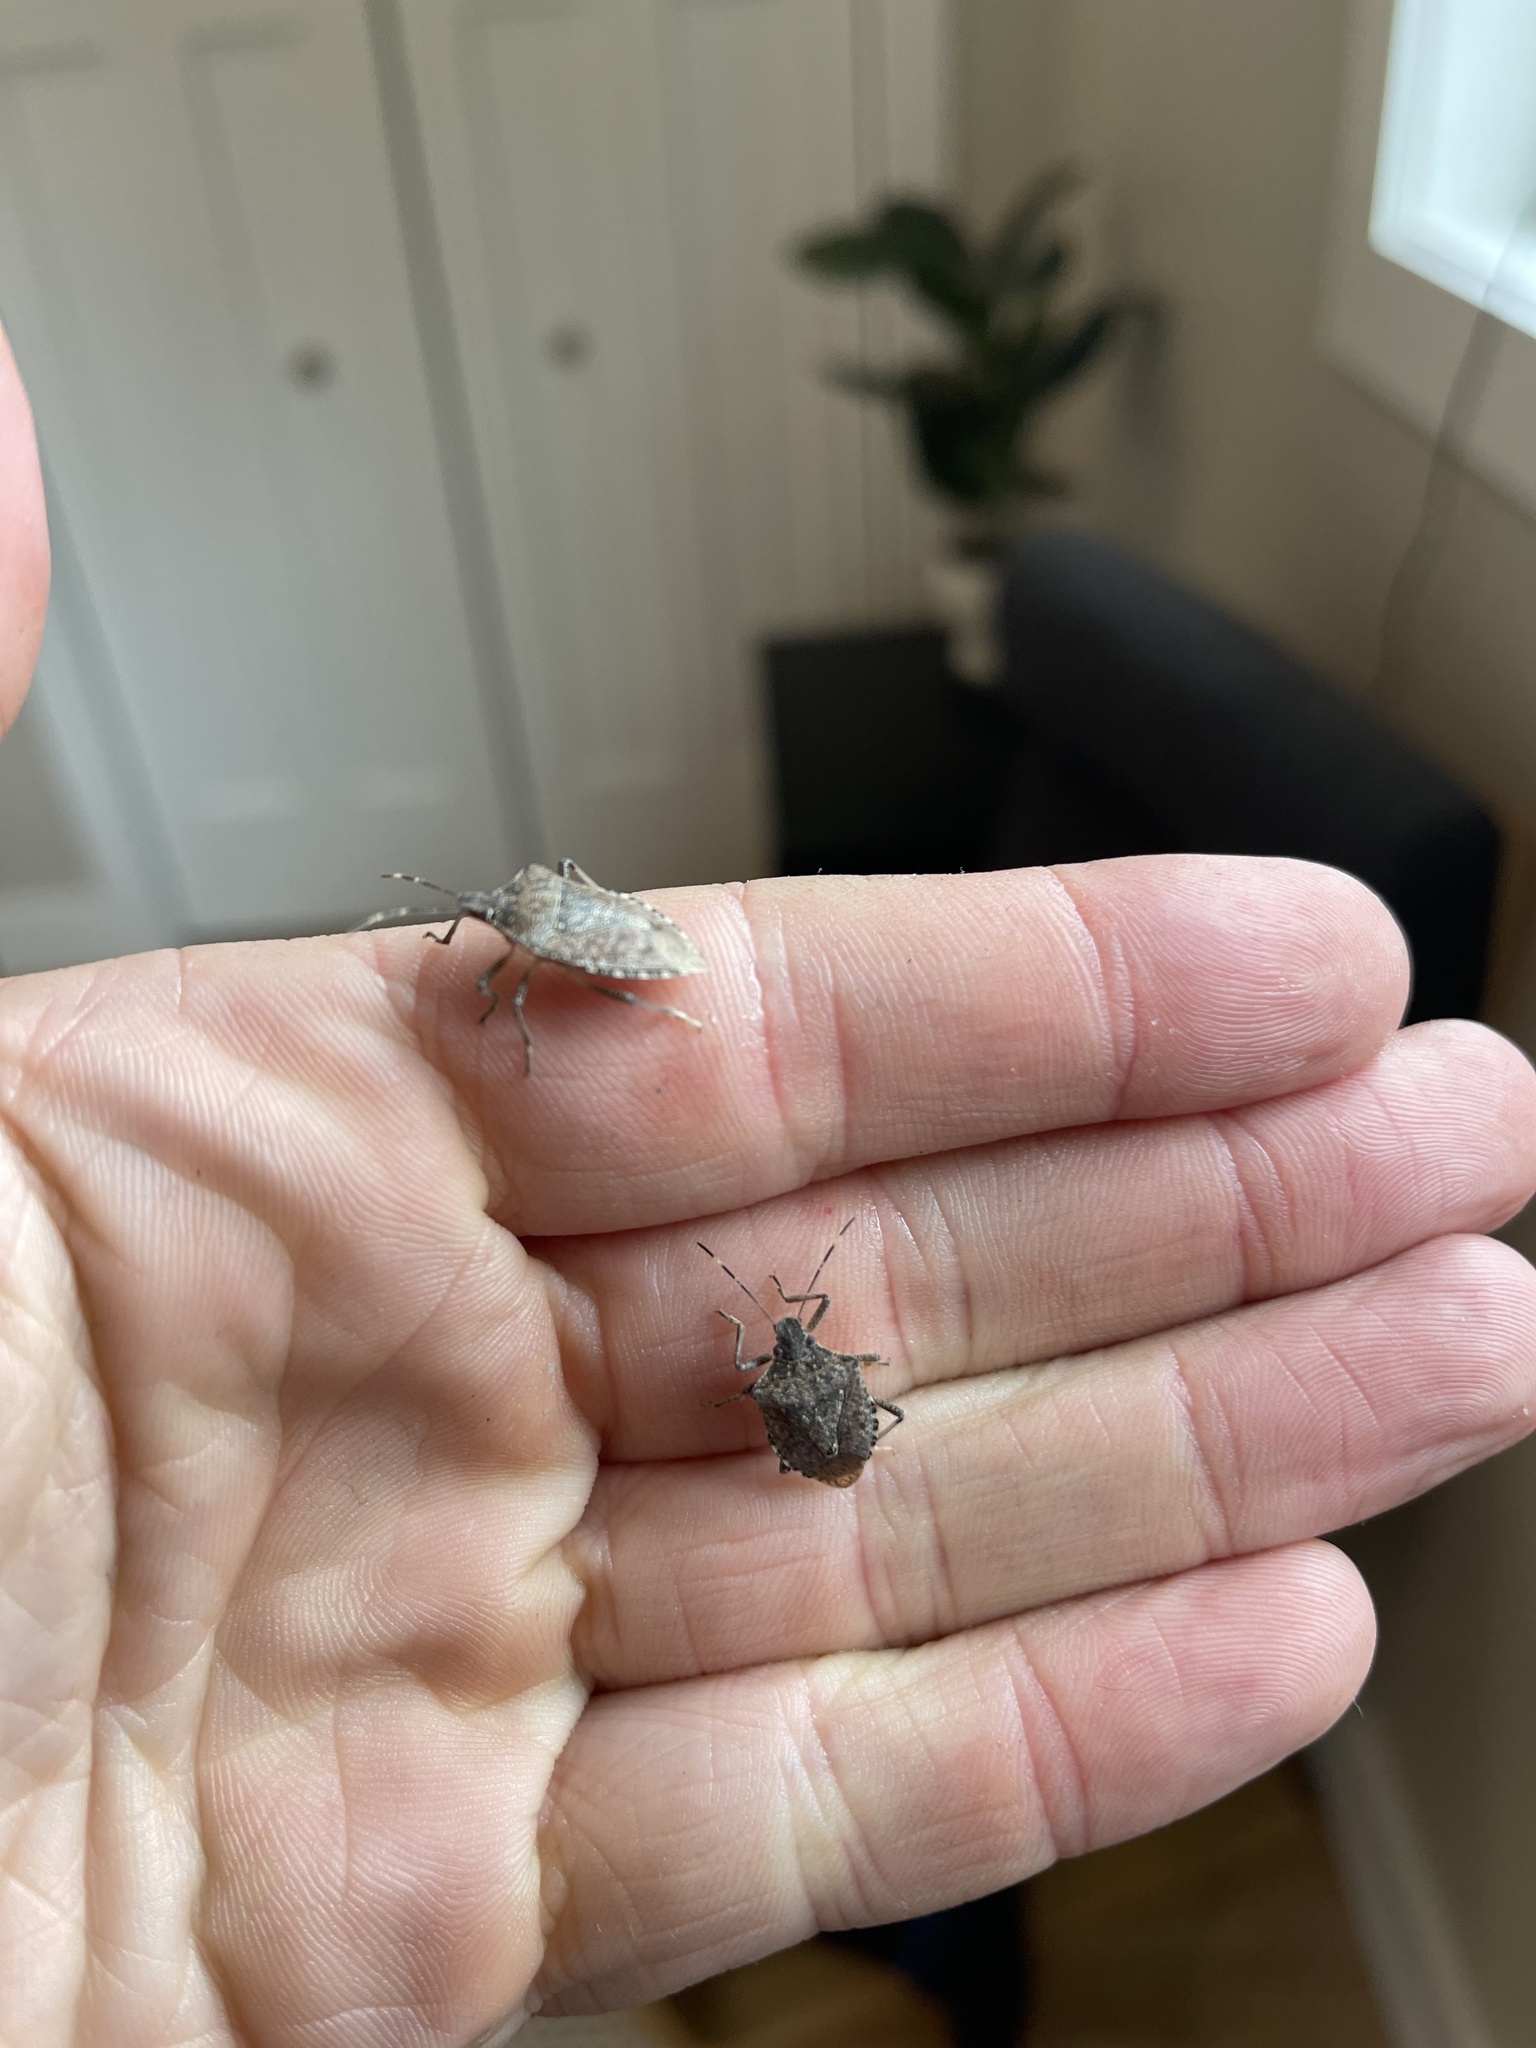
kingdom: Animalia
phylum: Arthropoda
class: Insecta
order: Hemiptera
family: Pentatomidae
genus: Halyomorpha
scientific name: Halyomorpha halys
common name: Brown marmorated stink bug
